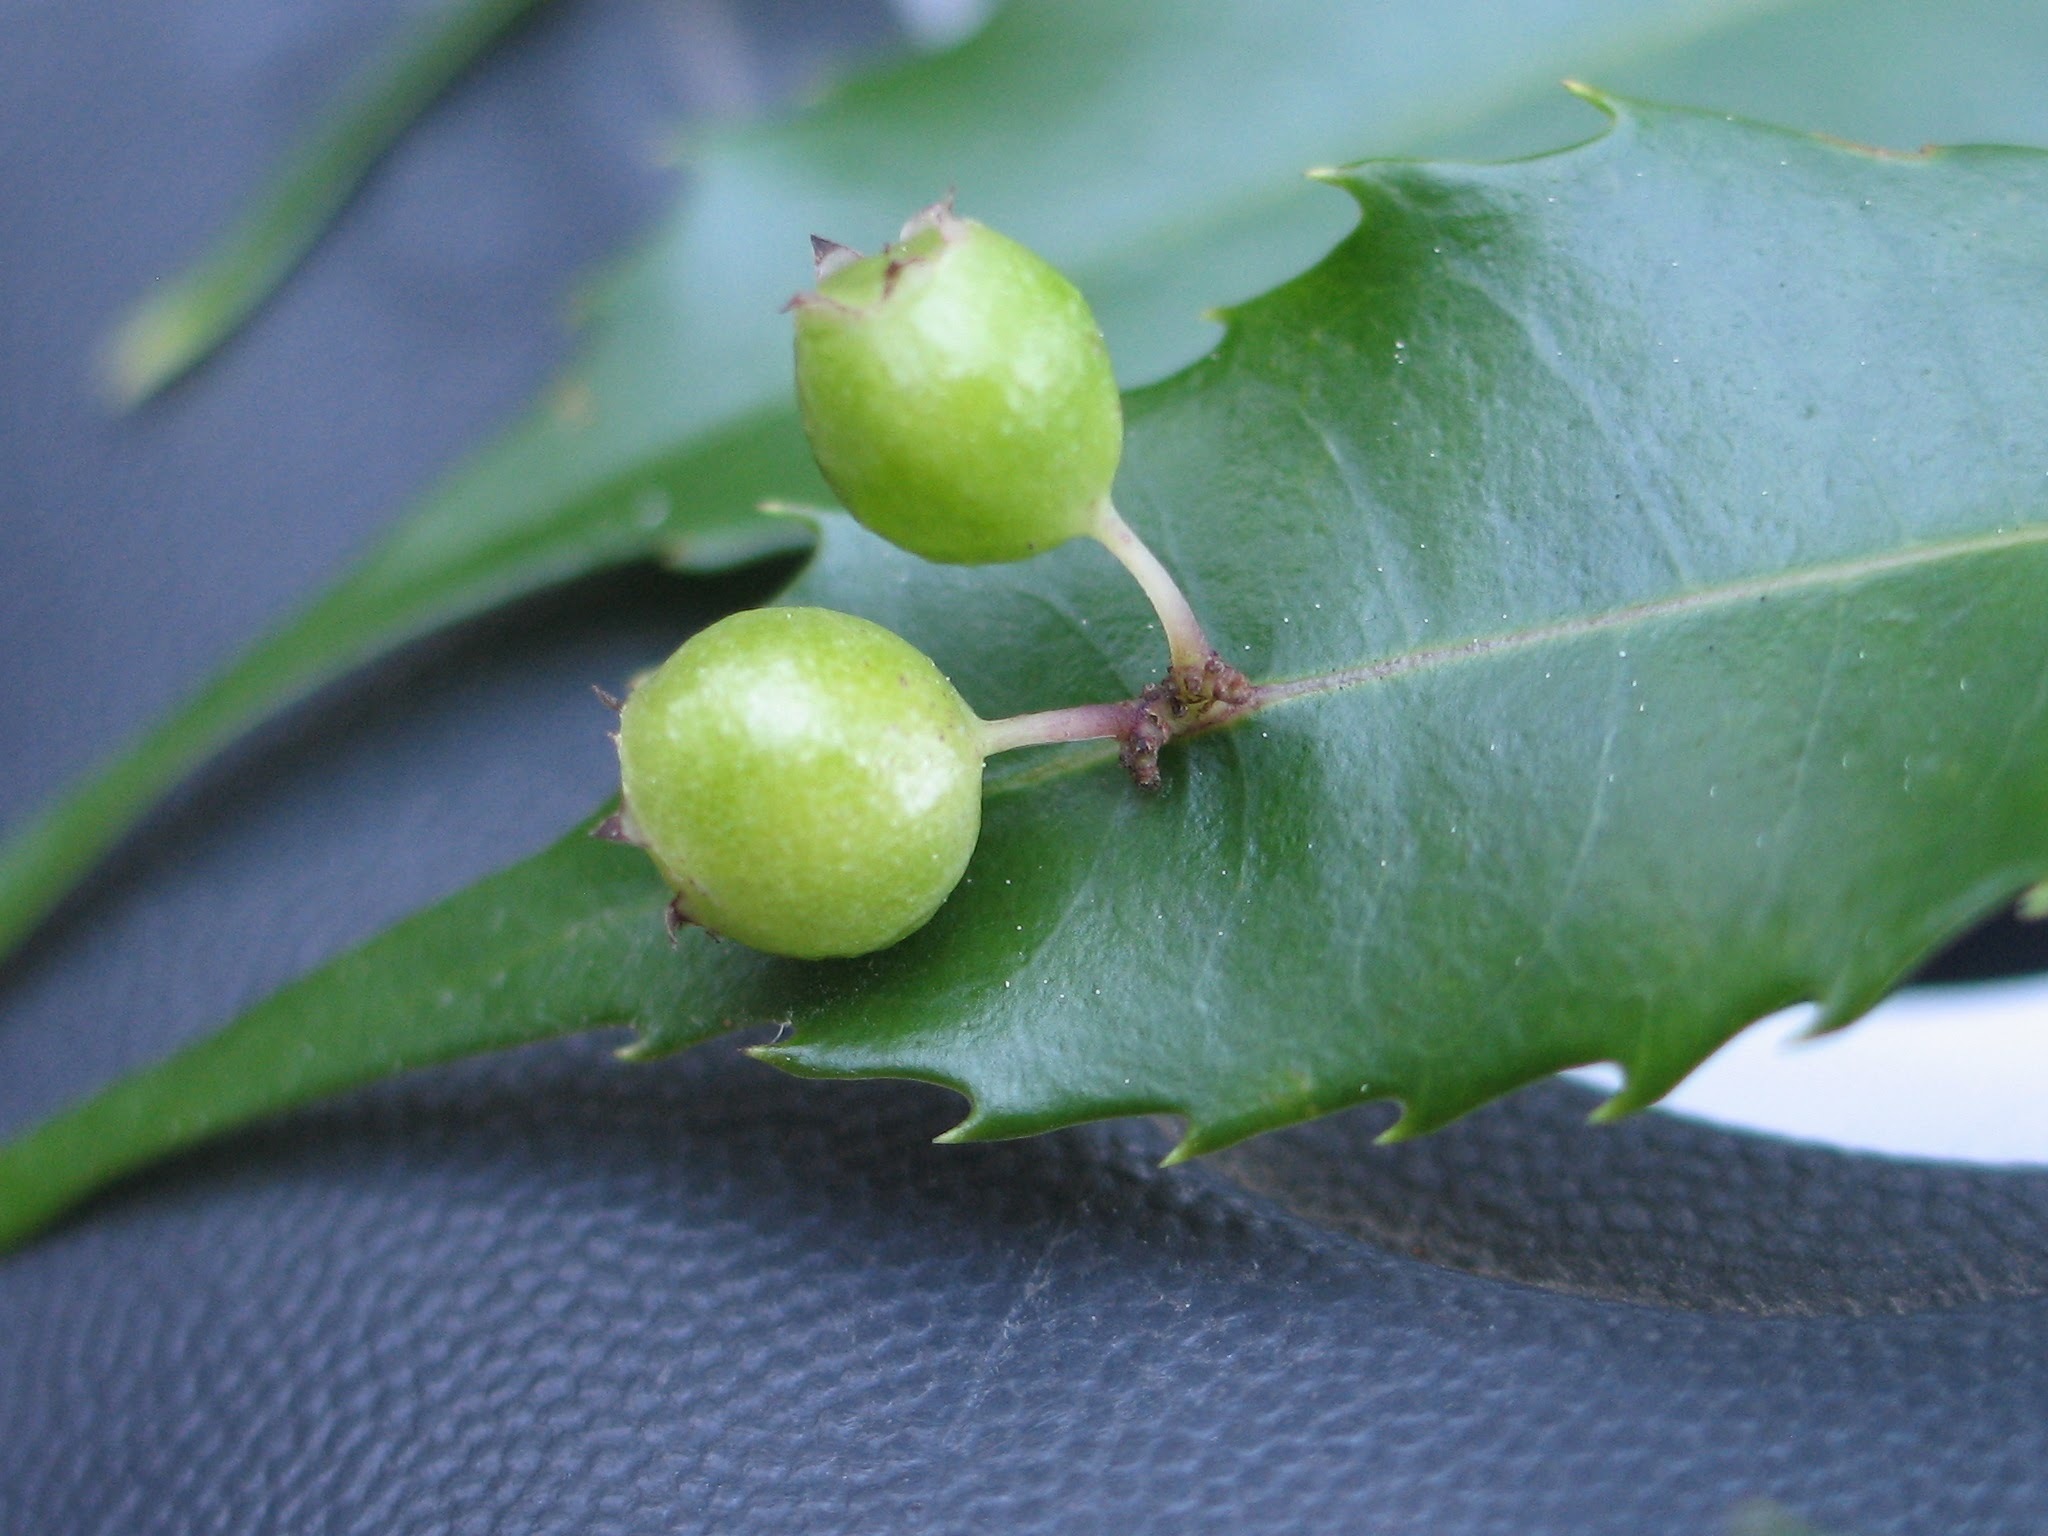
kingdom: Plantae
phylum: Tracheophyta
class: Magnoliopsida
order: Aquifoliales
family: Phyllonomaceae
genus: Phyllonoma
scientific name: Phyllonoma laticuspis
